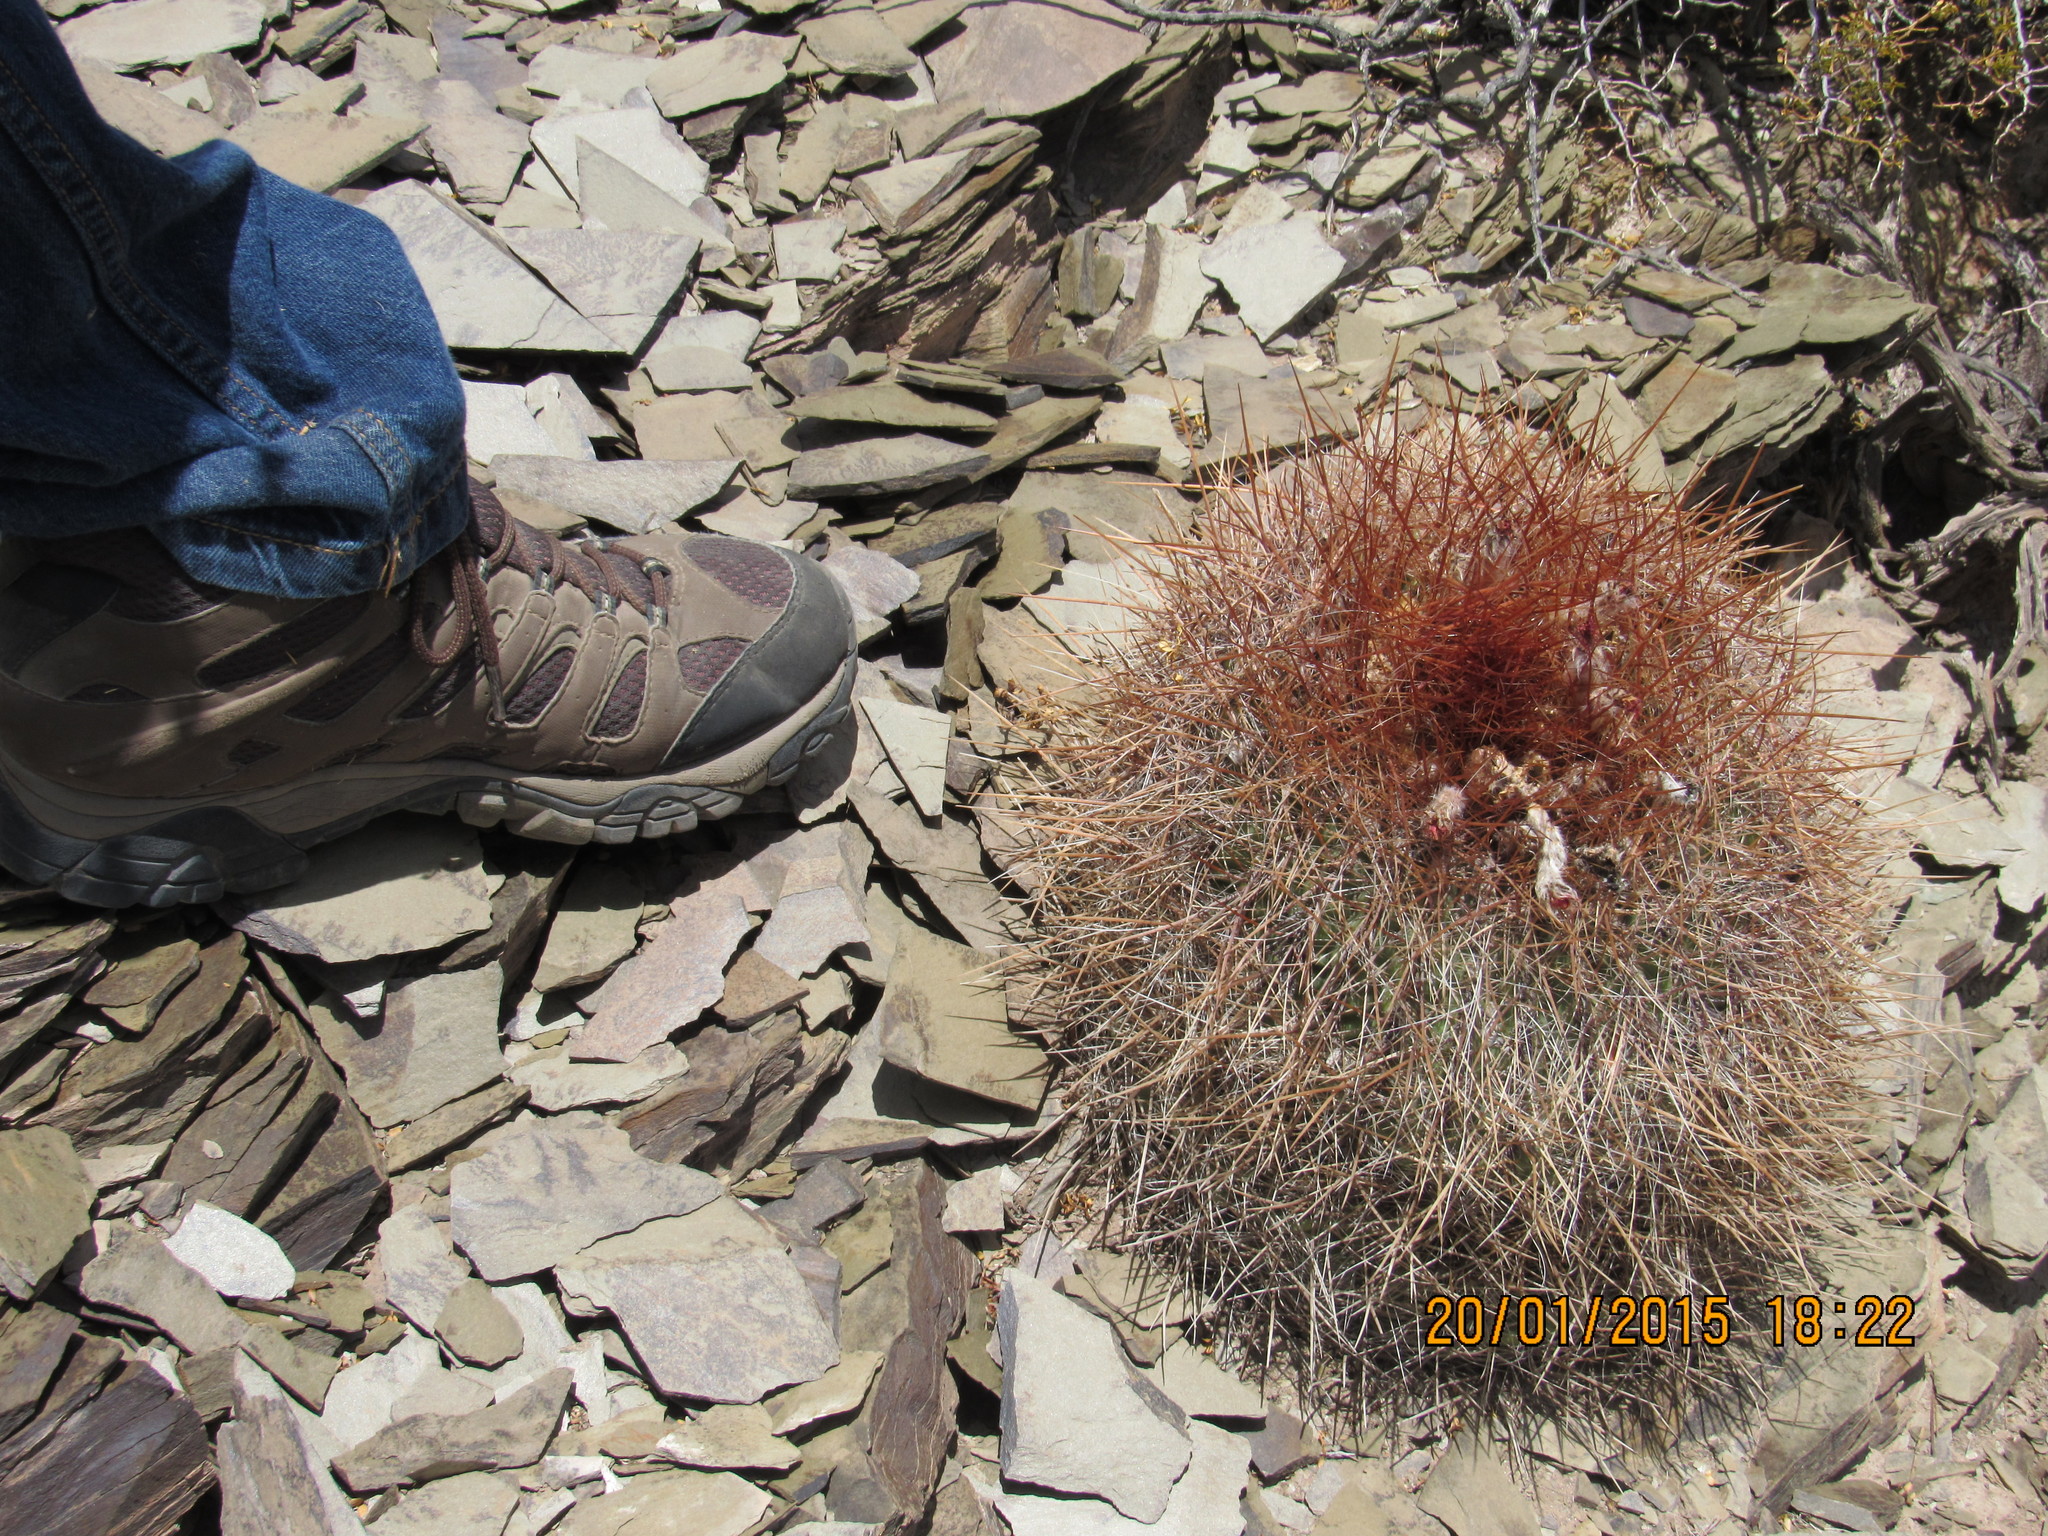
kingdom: Plantae
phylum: Tracheophyta
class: Magnoliopsida
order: Caryophyllales
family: Cactaceae
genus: Denmoza
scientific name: Denmoza rhodacantha
